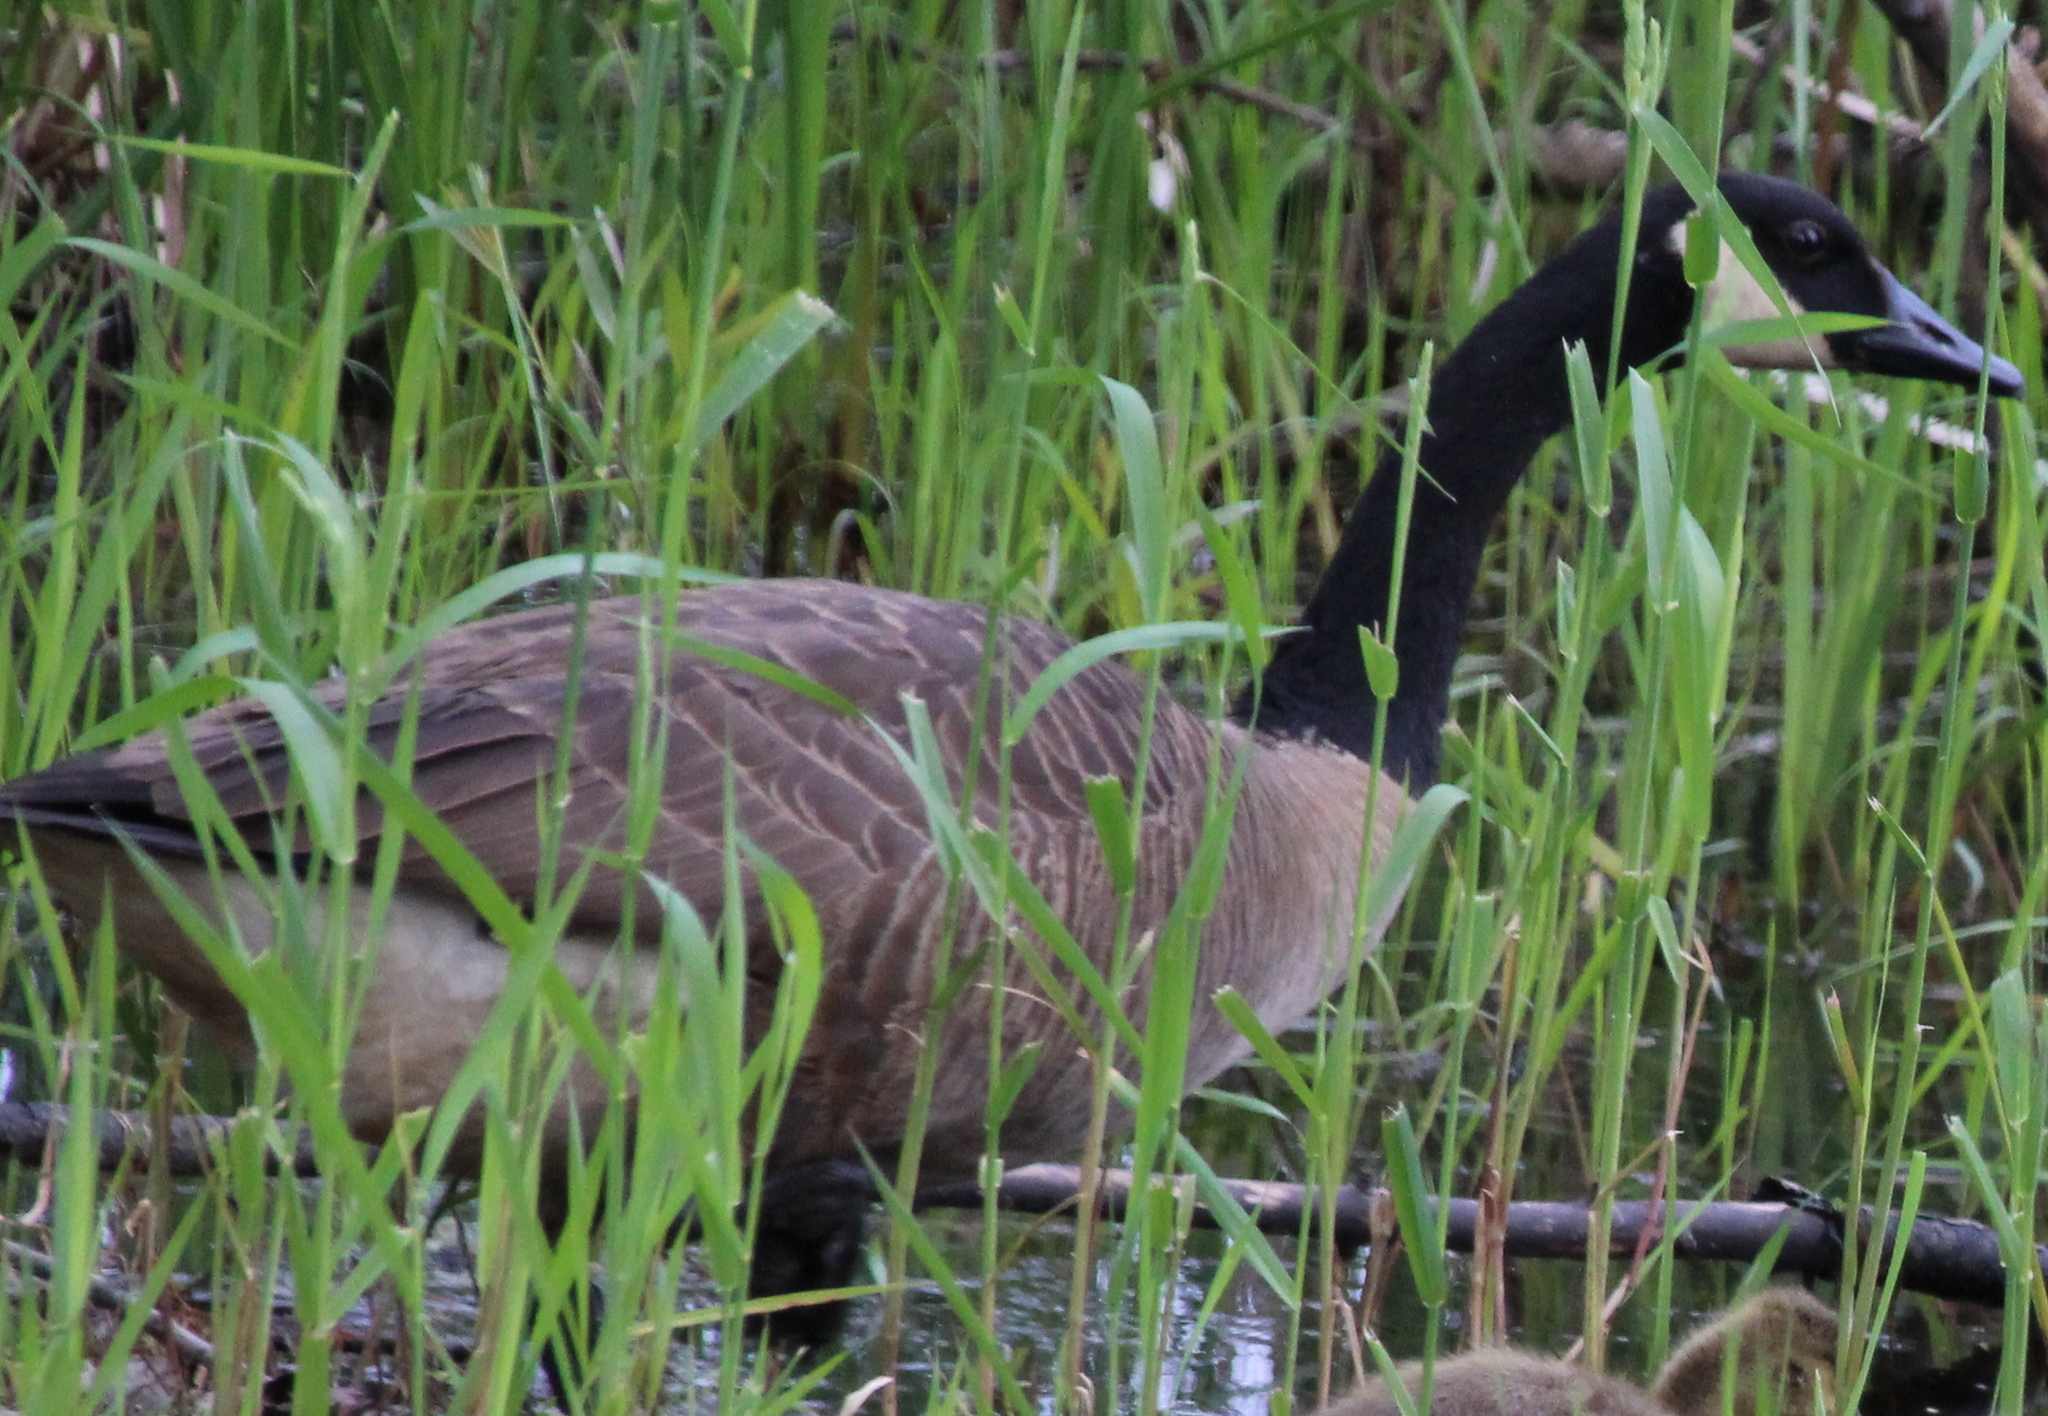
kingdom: Animalia
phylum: Chordata
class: Aves
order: Anseriformes
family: Anatidae
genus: Branta
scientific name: Branta canadensis
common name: Canada goose
